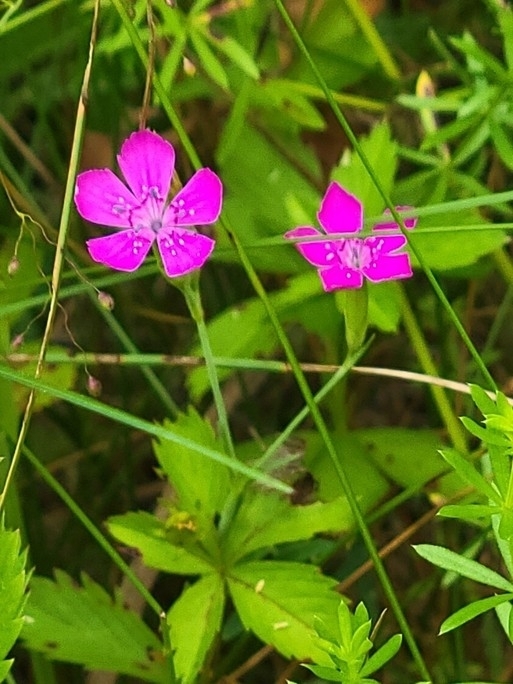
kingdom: Plantae
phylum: Tracheophyta
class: Magnoliopsida
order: Caryophyllales
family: Caryophyllaceae
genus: Dianthus
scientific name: Dianthus deltoides
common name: Maiden pink
